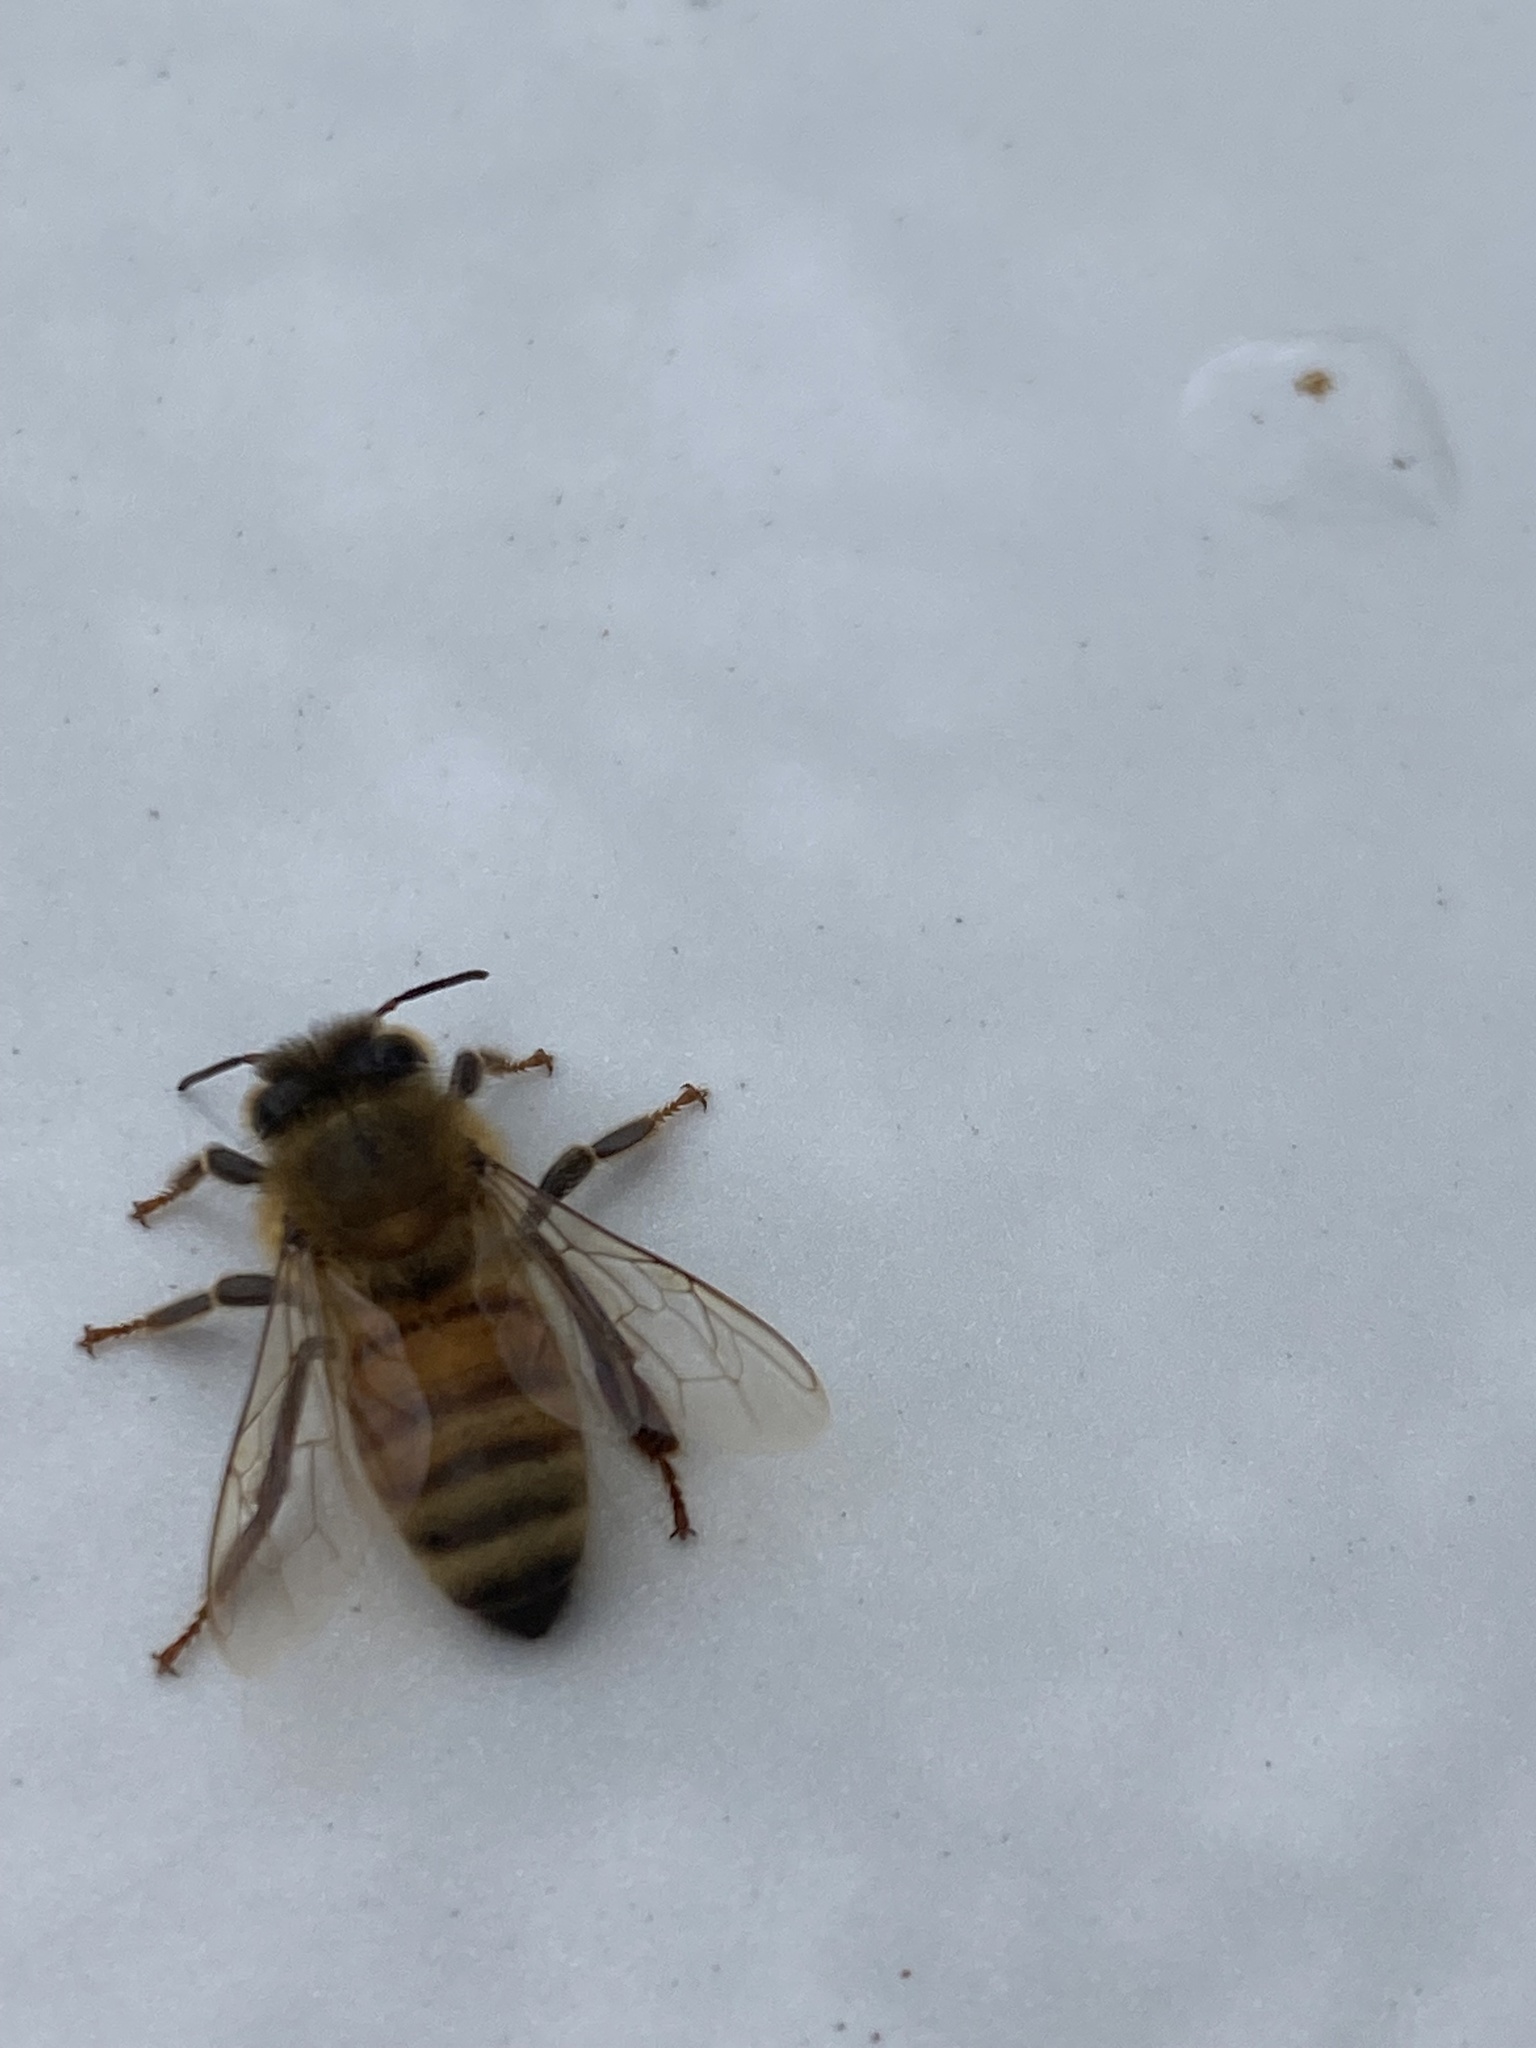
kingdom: Animalia
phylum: Arthropoda
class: Insecta
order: Hymenoptera
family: Apidae
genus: Apis
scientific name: Apis mellifera
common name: Honey bee
